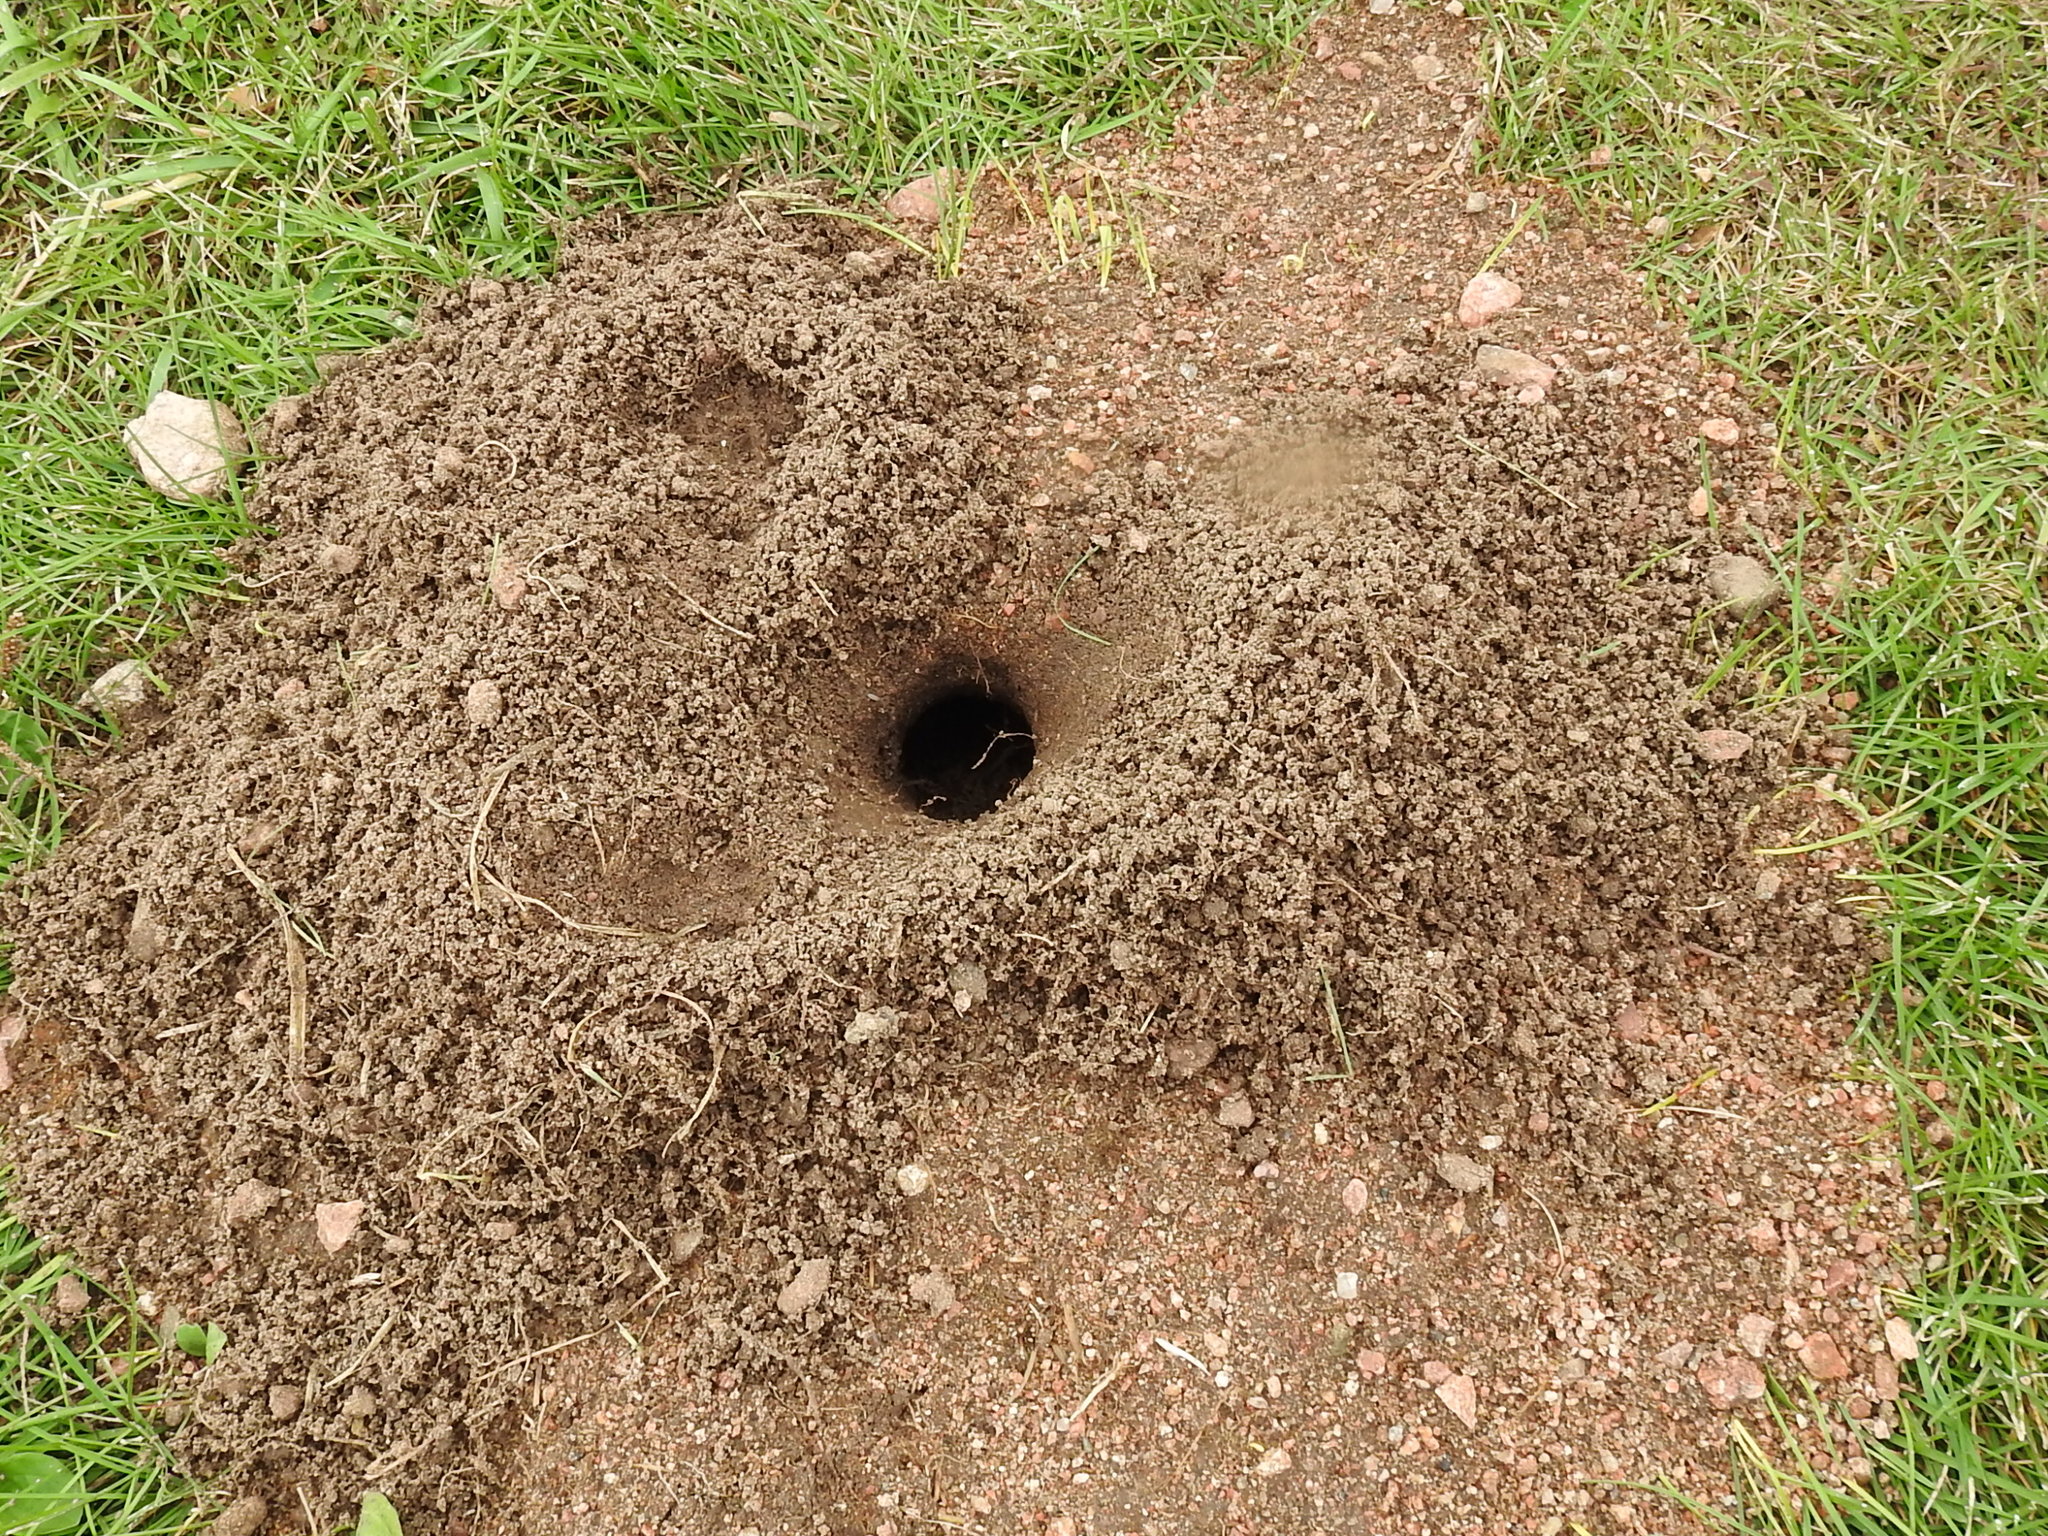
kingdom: Animalia
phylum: Chordata
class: Mammalia
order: Rodentia
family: Geomyidae
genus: Thomomys
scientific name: Thomomys bottae
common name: Botta's pocket gopher
